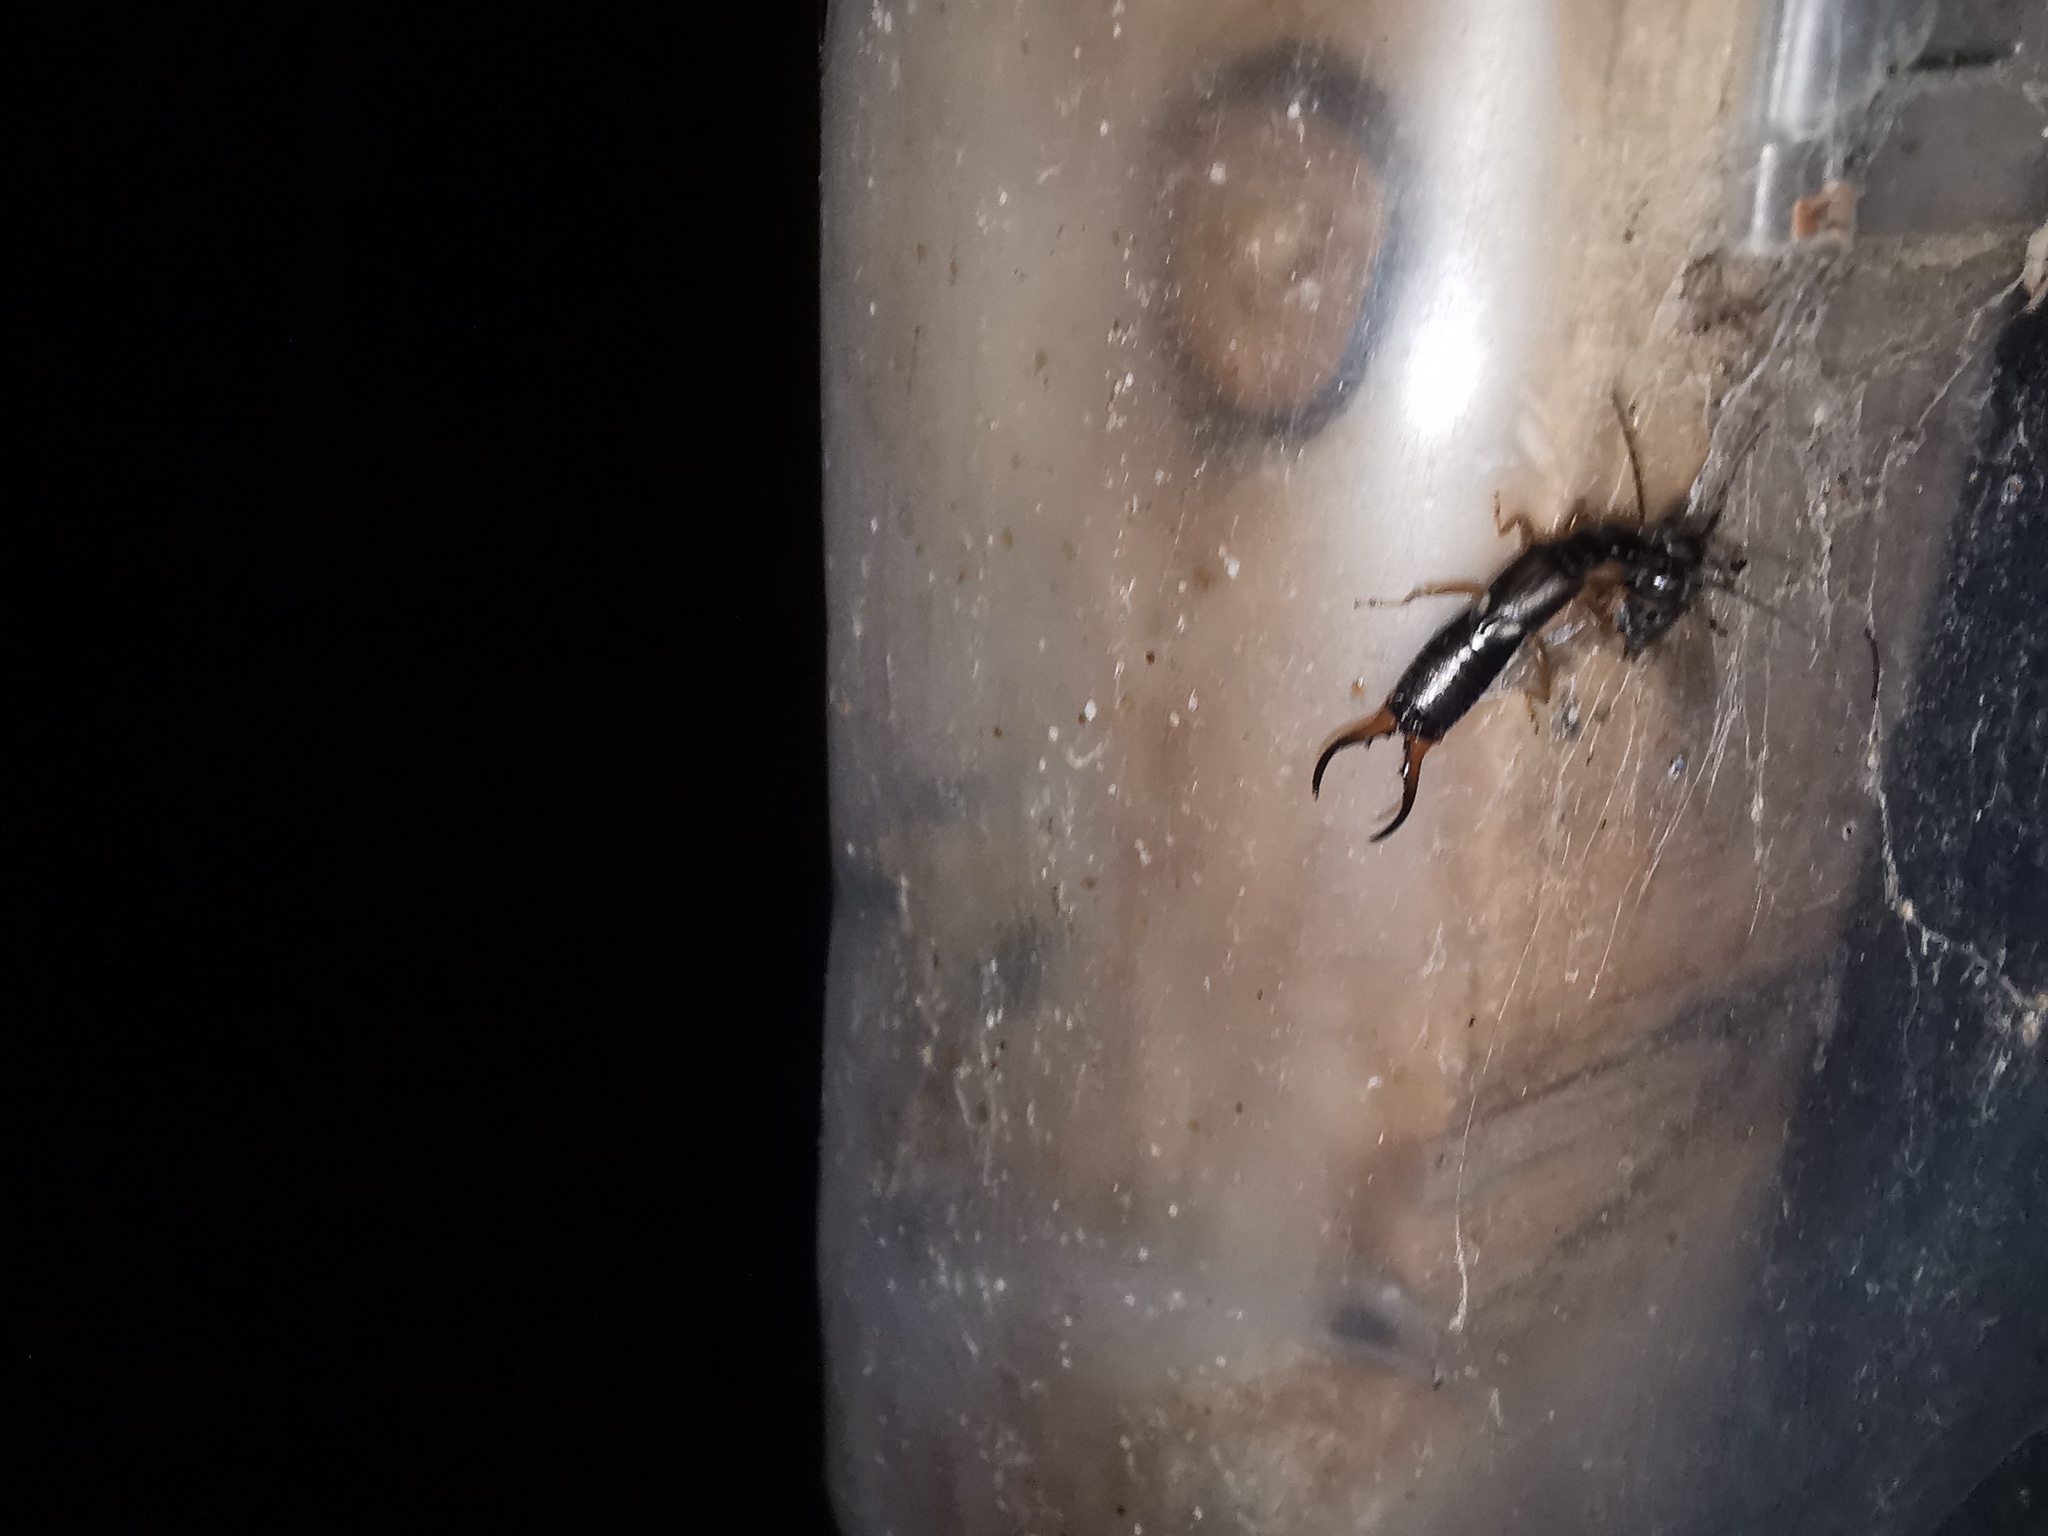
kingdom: Animalia
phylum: Arthropoda
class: Insecta
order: Dermaptera
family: Forficulidae
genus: Forficula
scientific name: Forficula
